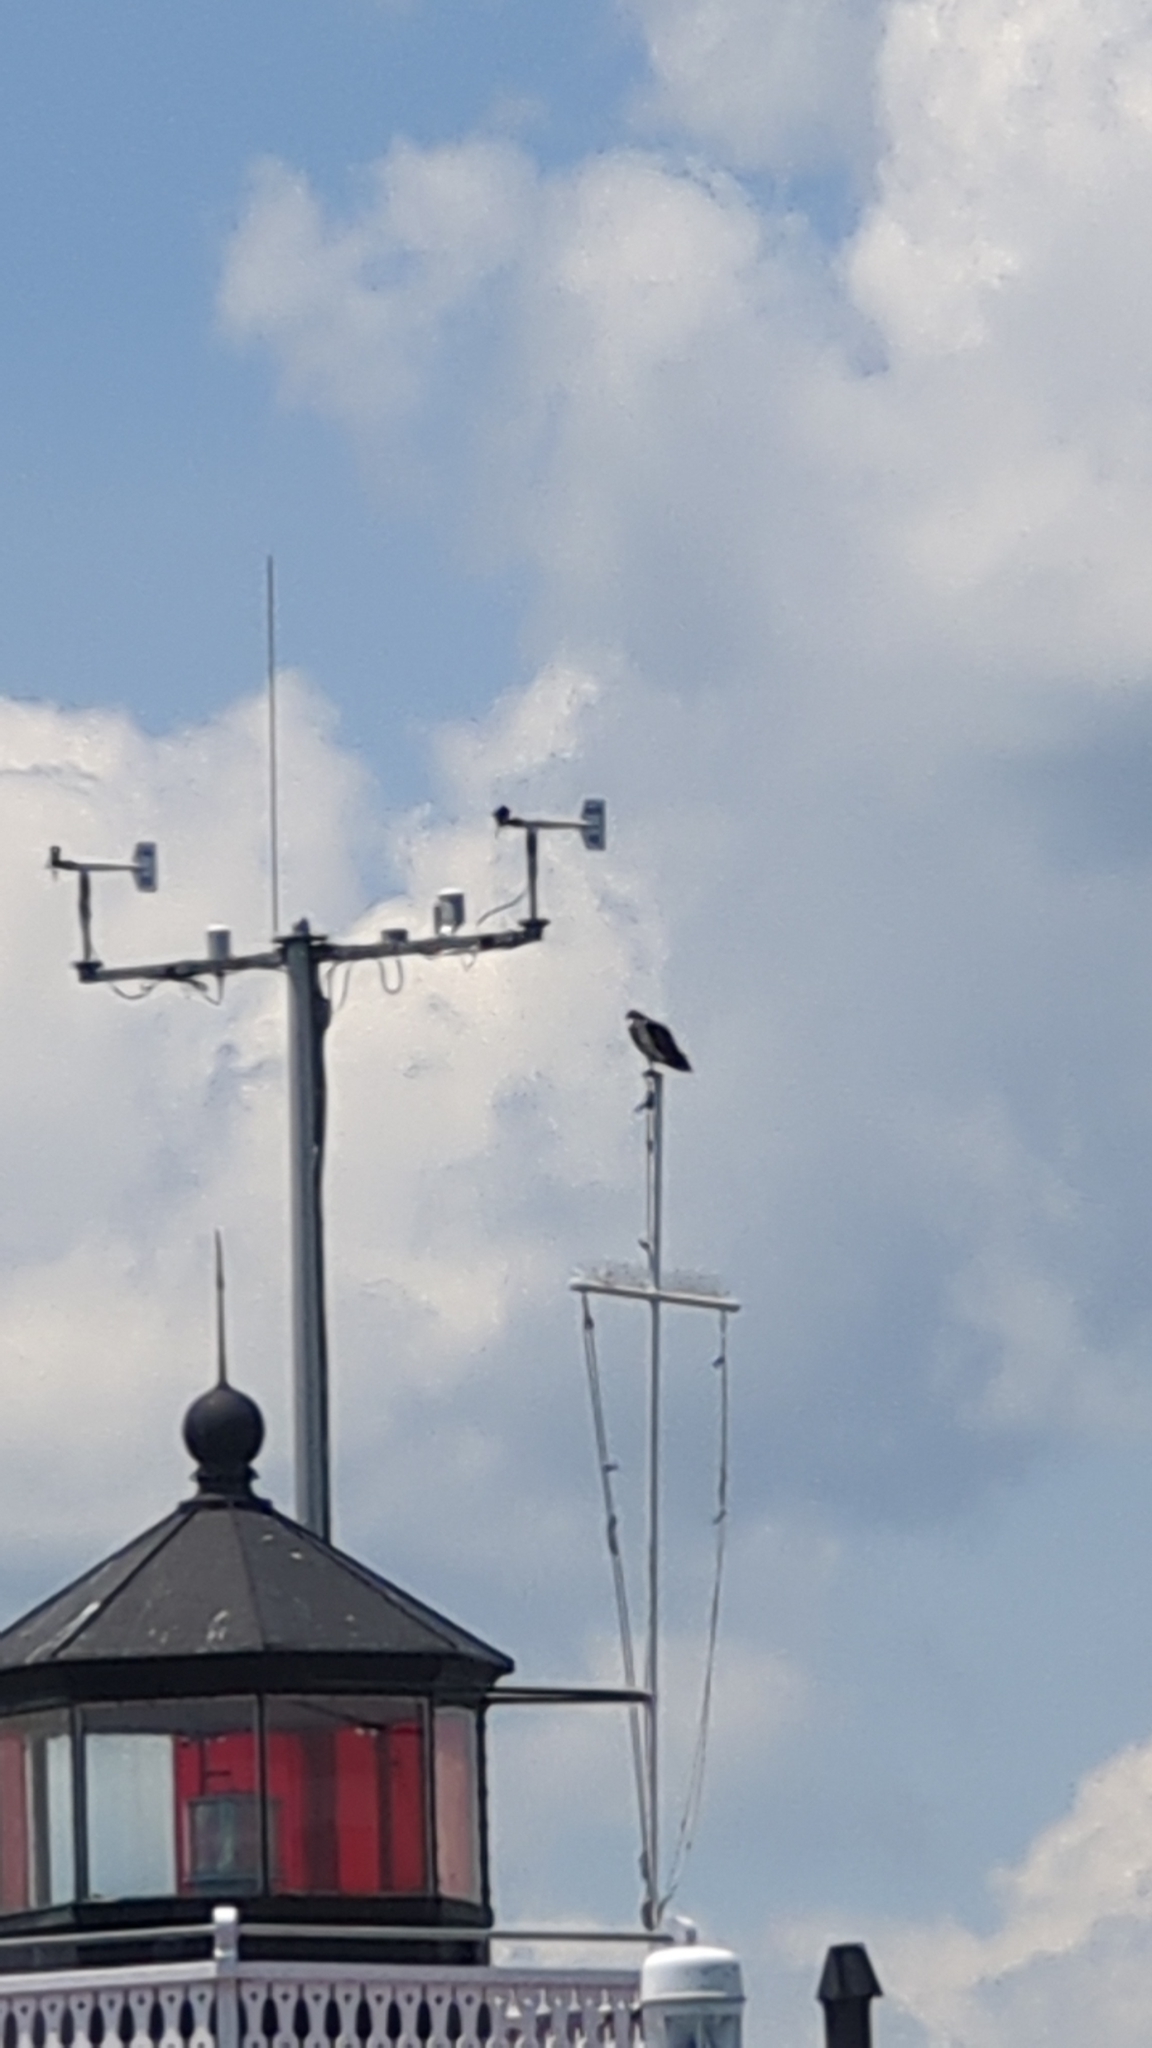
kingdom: Animalia
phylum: Chordata
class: Aves
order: Accipitriformes
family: Pandionidae
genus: Pandion
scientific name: Pandion haliaetus
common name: Osprey
